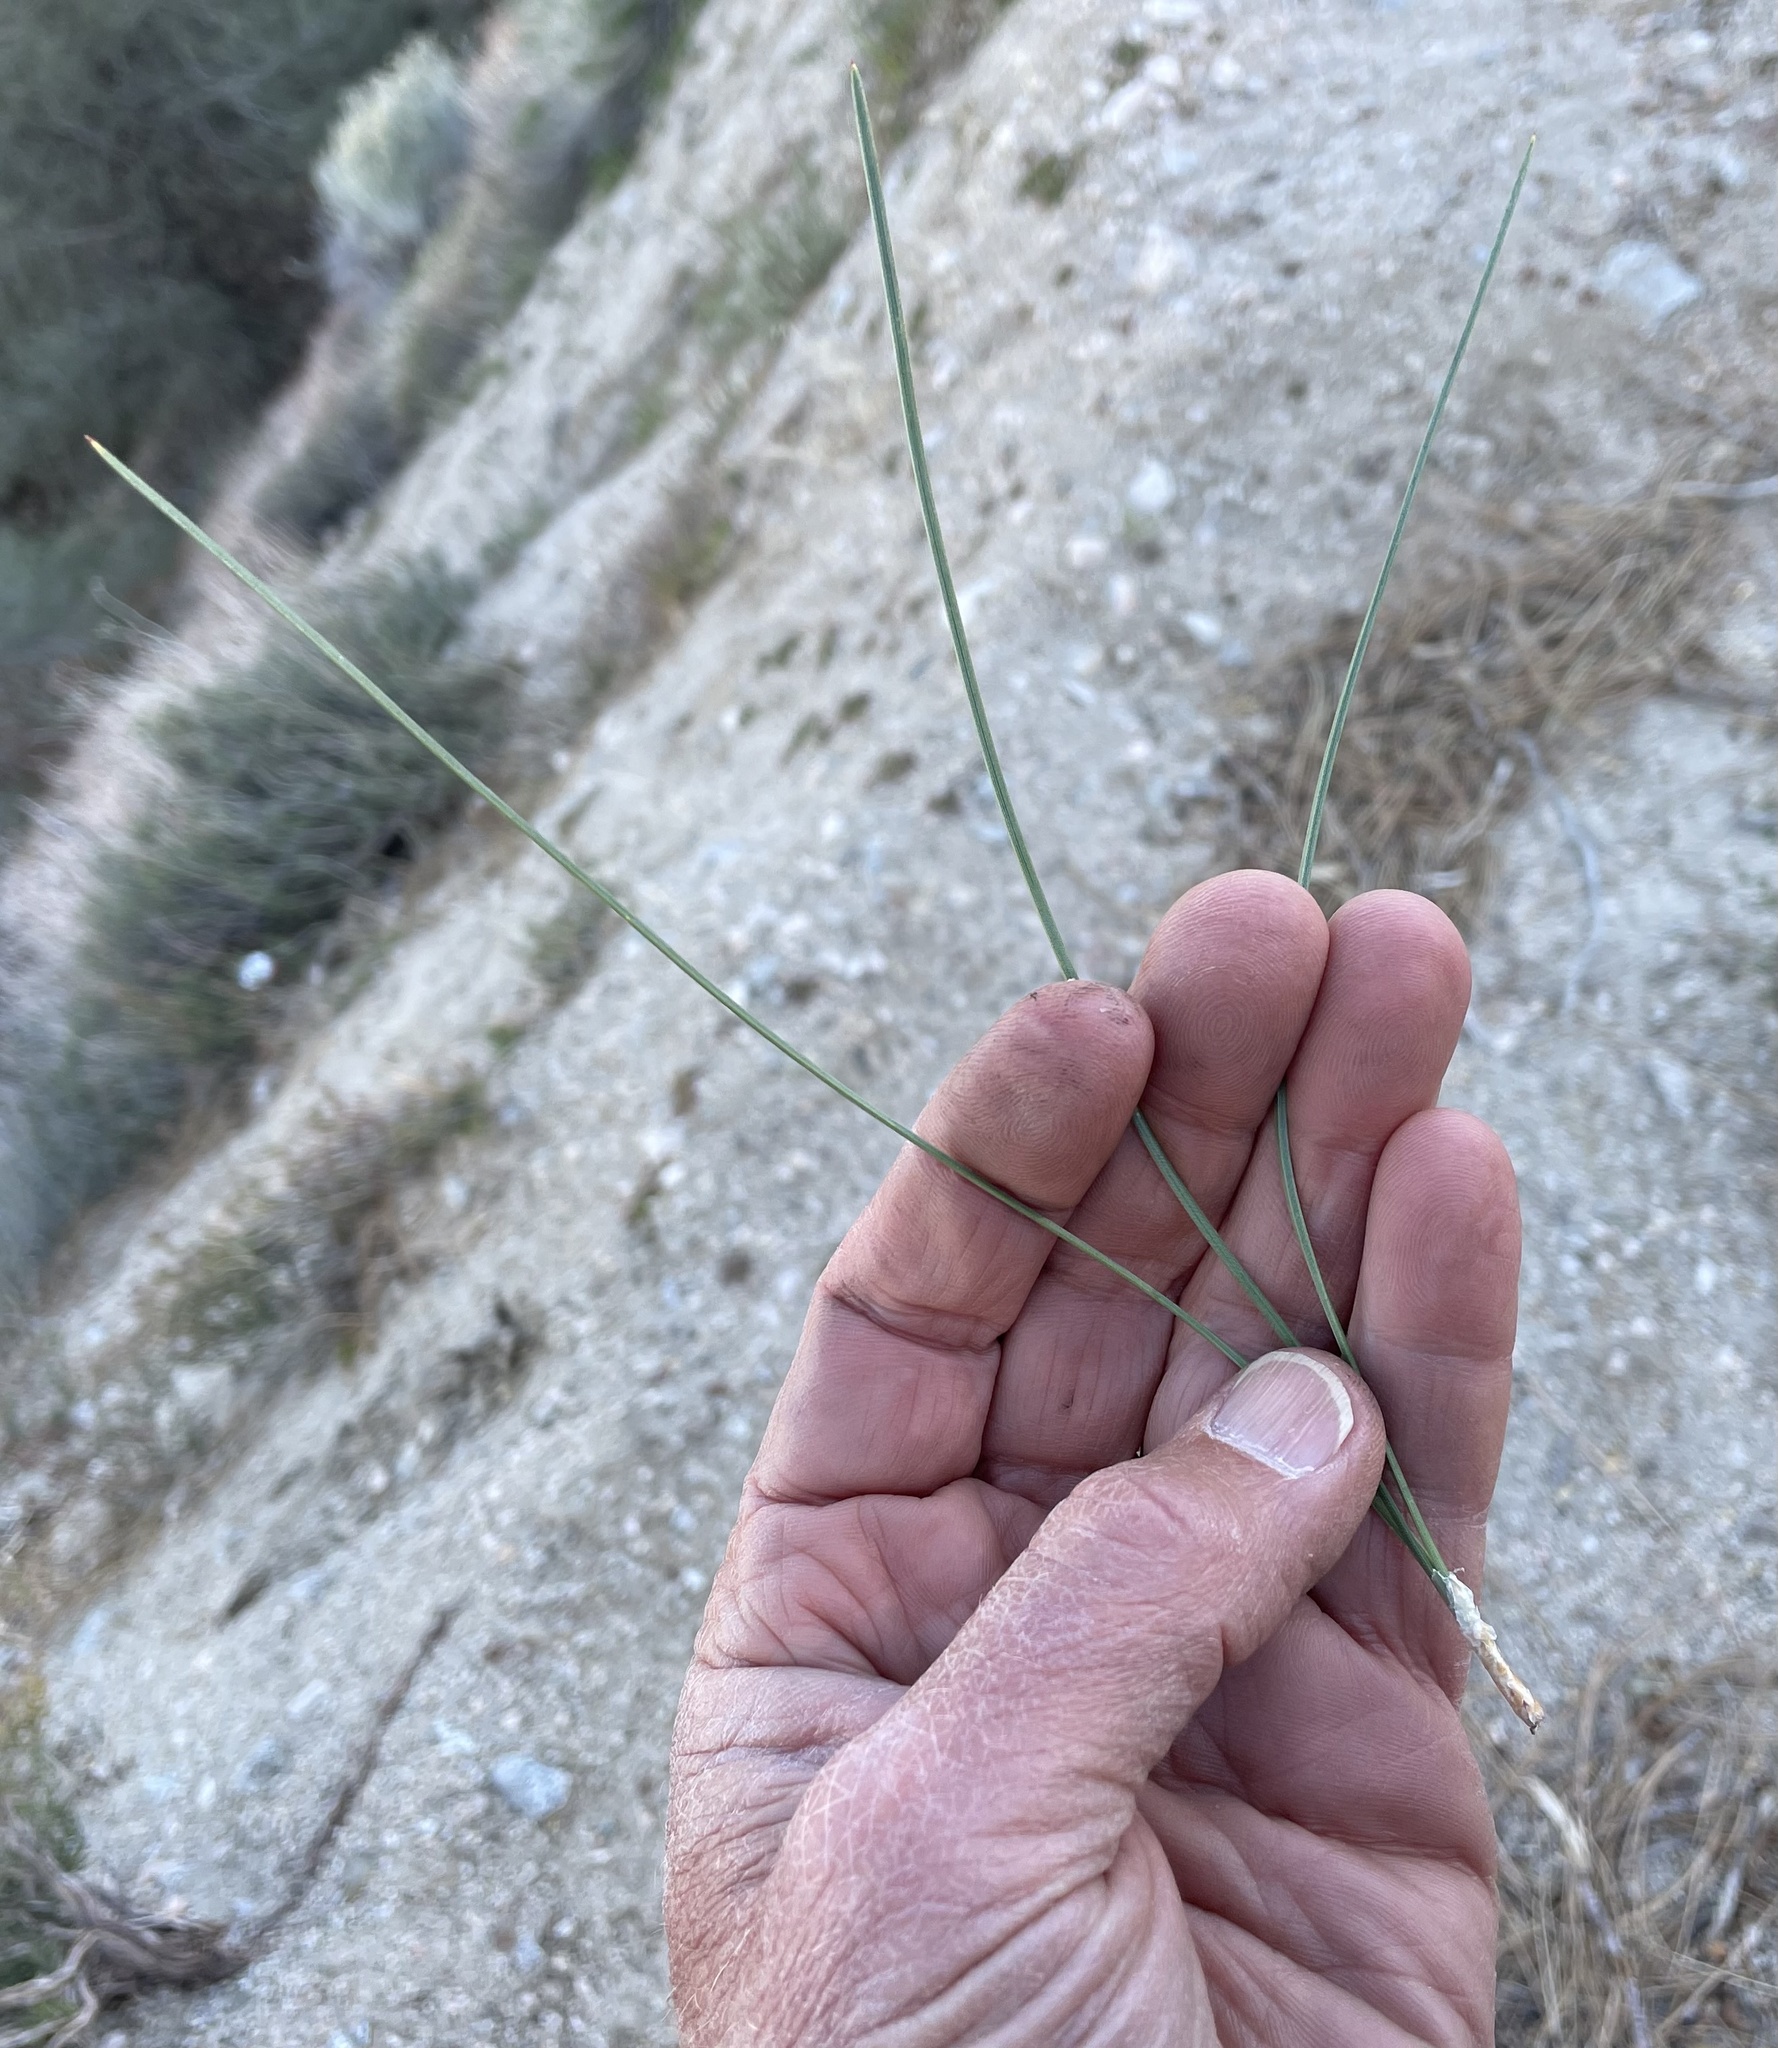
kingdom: Plantae
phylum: Tracheophyta
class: Pinopsida
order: Pinales
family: Pinaceae
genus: Pinus
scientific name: Pinus sabiniana
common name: Bull pine
